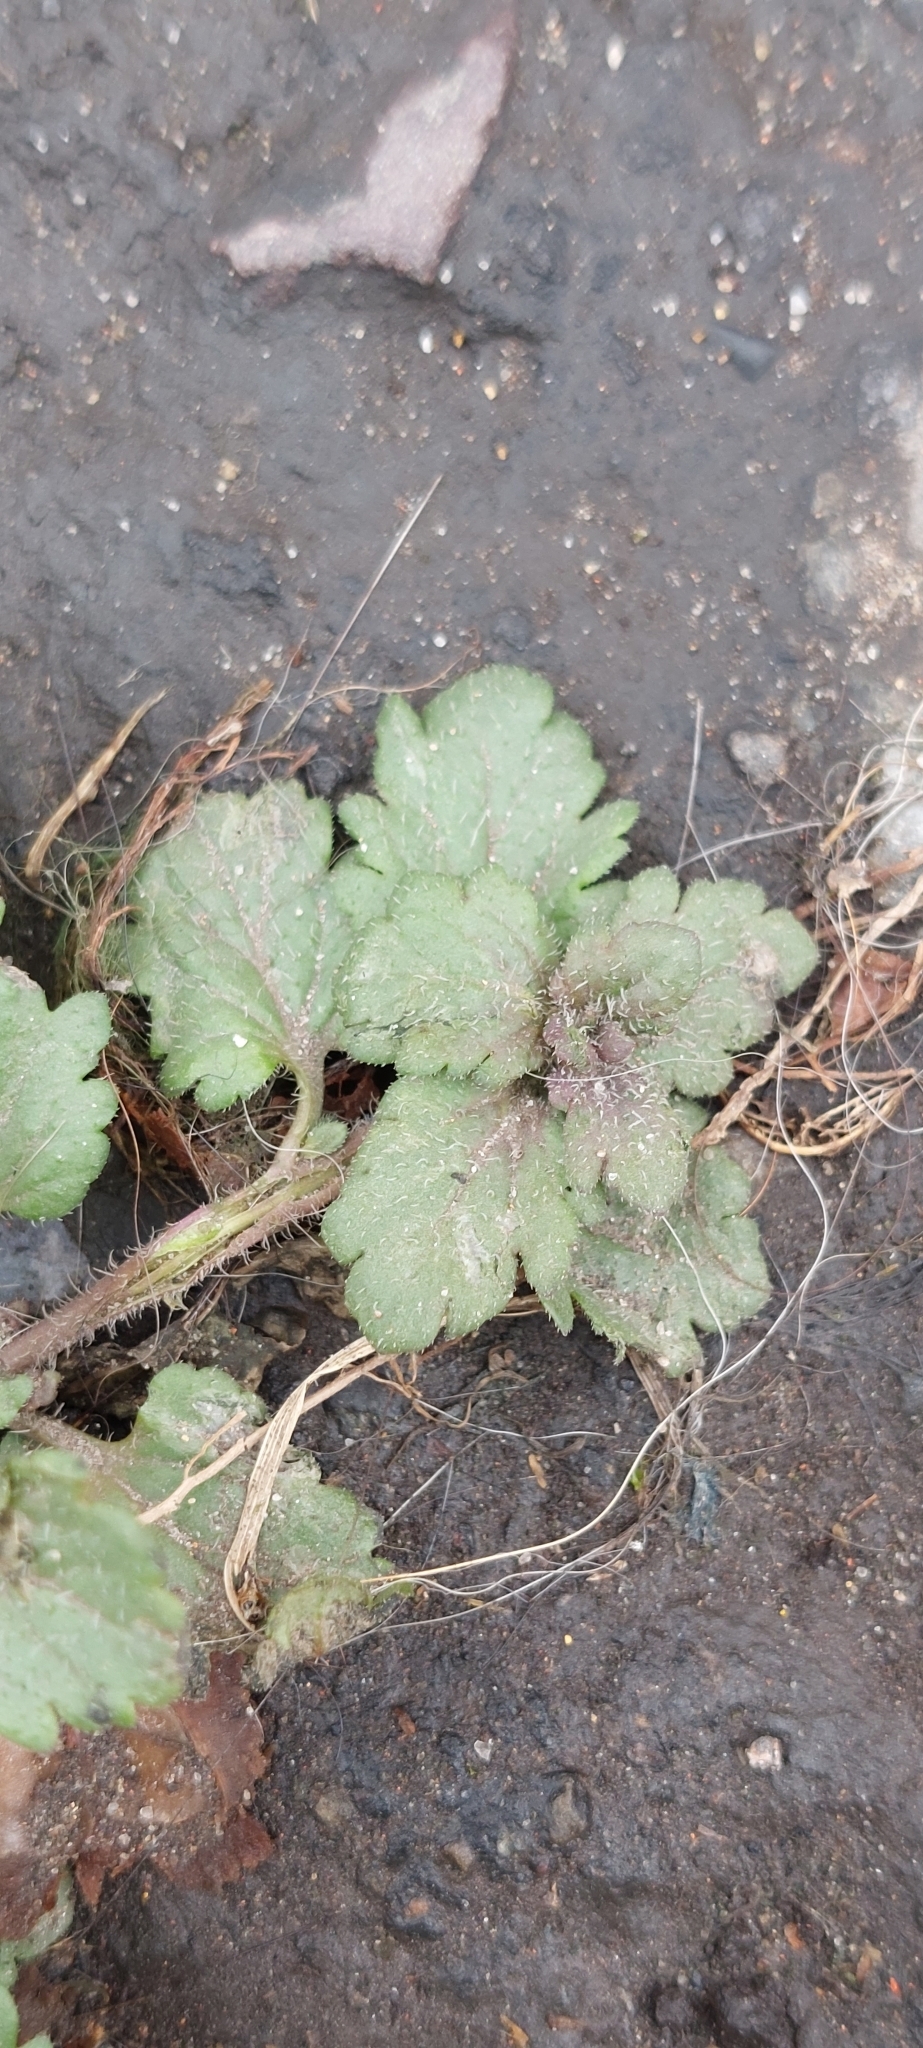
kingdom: Plantae
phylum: Tracheophyta
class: Magnoliopsida
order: Lamiales
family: Plantaginaceae
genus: Veronica
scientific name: Veronica persica
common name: Common field-speedwell
